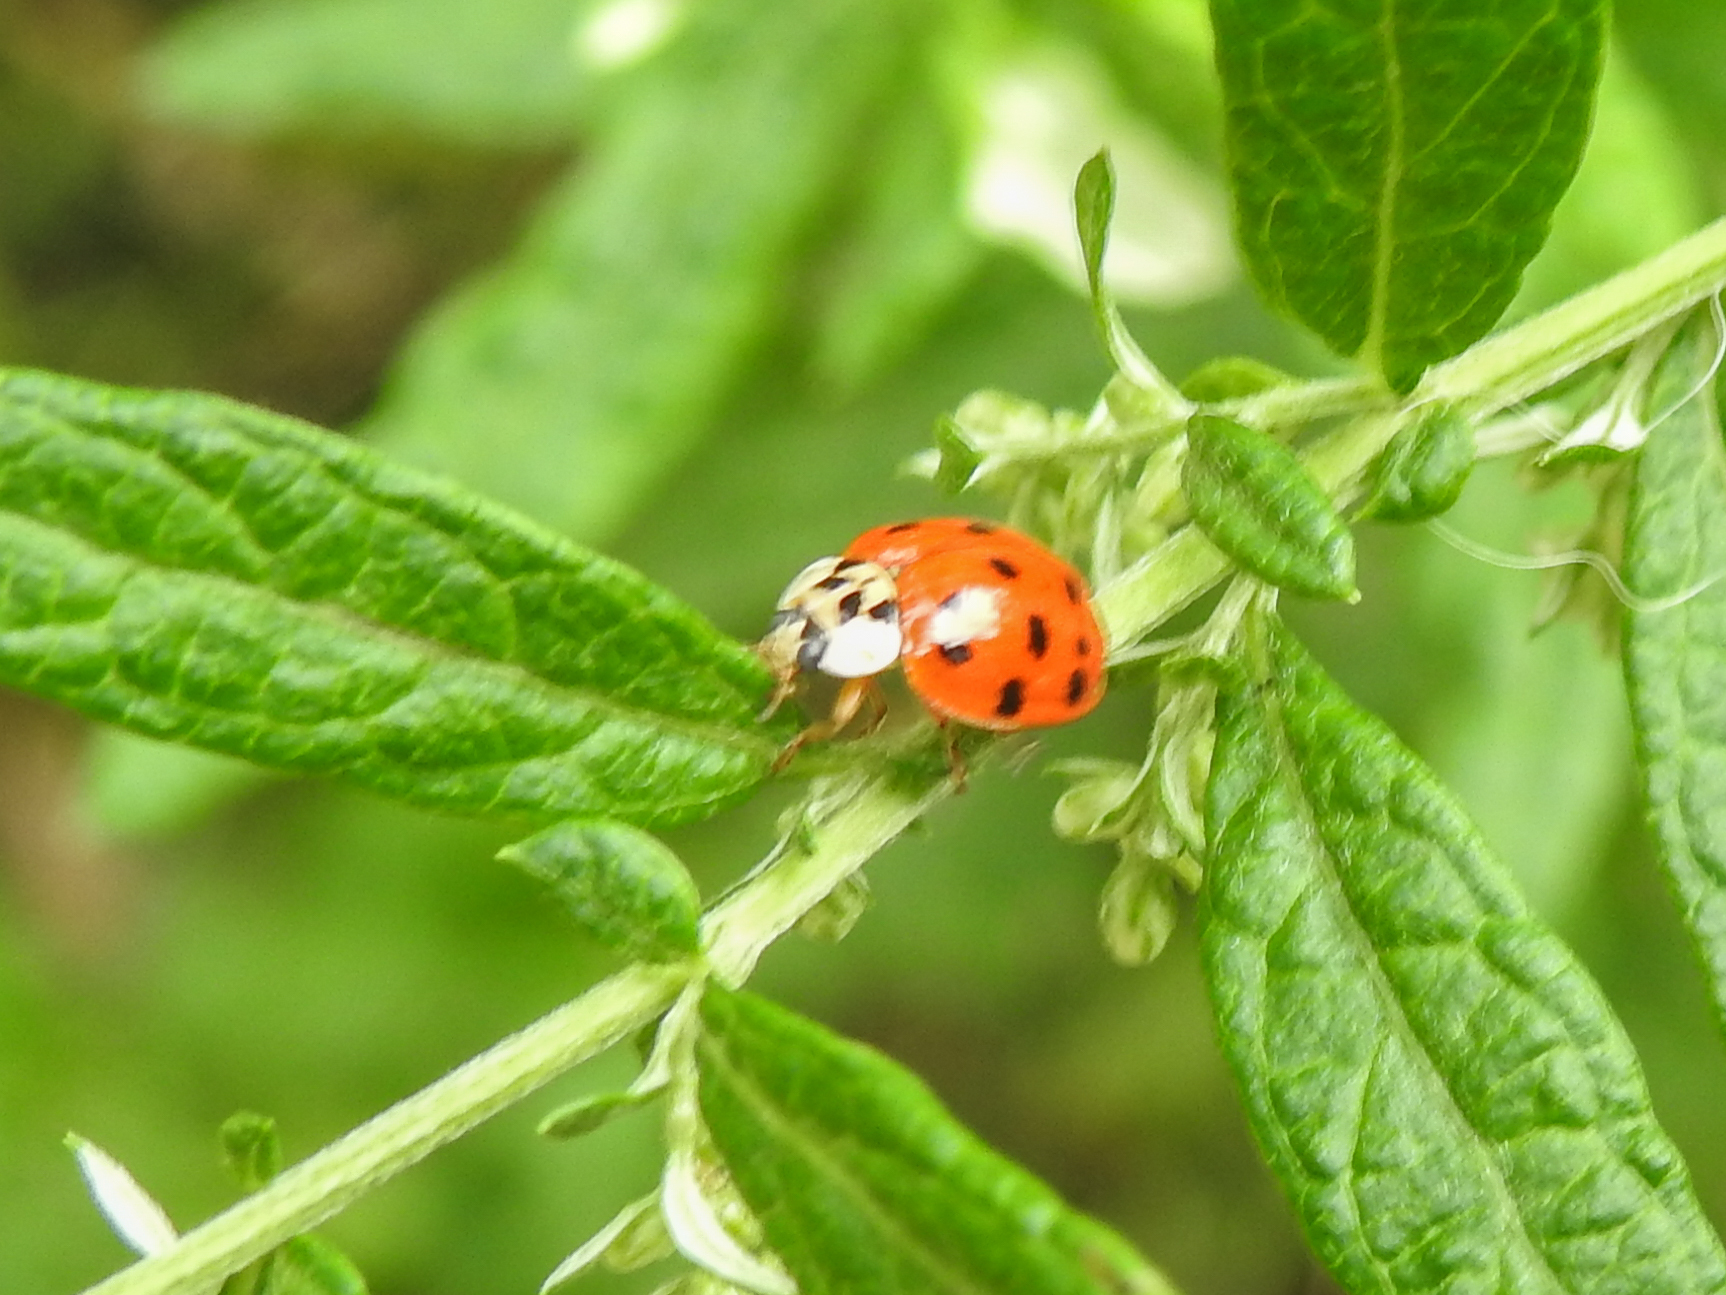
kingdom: Animalia
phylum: Arthropoda
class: Insecta
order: Coleoptera
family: Coccinellidae
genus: Harmonia
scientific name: Harmonia axyridis
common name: Harlequin ladybird
